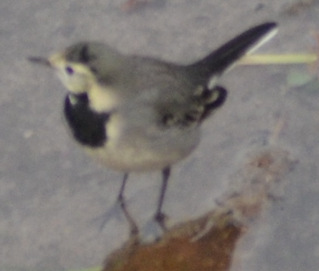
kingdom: Animalia
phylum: Chordata
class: Aves
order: Passeriformes
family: Motacillidae
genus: Motacilla
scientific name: Motacilla alba
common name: White wagtail
